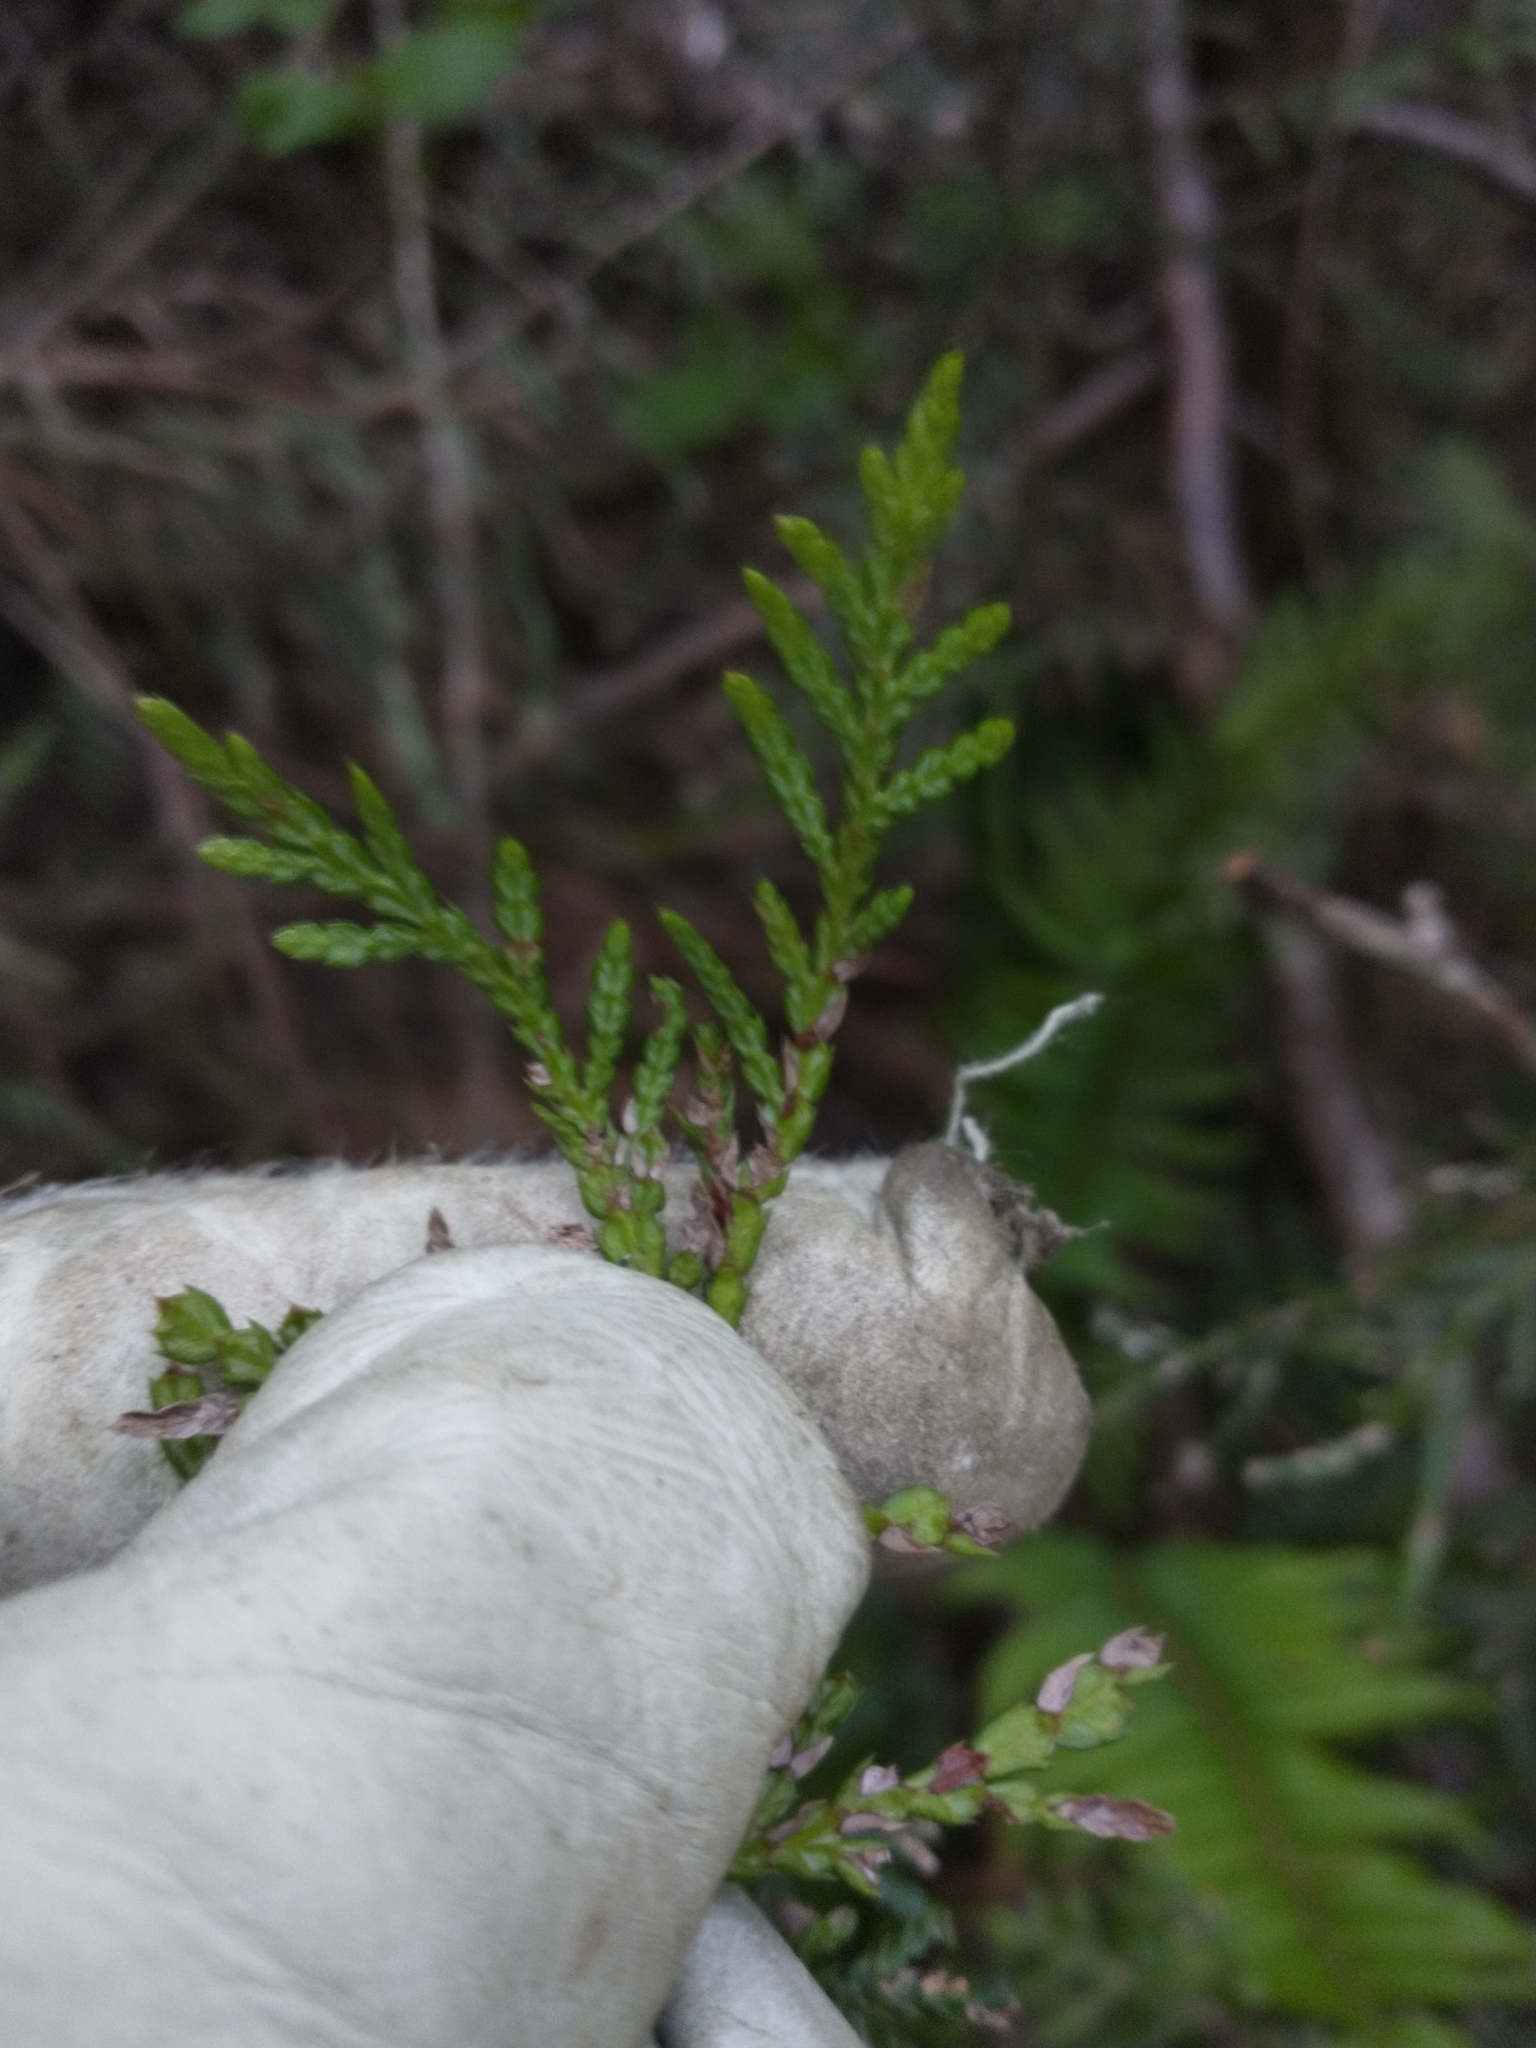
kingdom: Plantae
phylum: Tracheophyta
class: Pinopsida
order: Pinales
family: Cupressaceae
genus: Thuja
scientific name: Thuja plicata
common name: Western red-cedar
